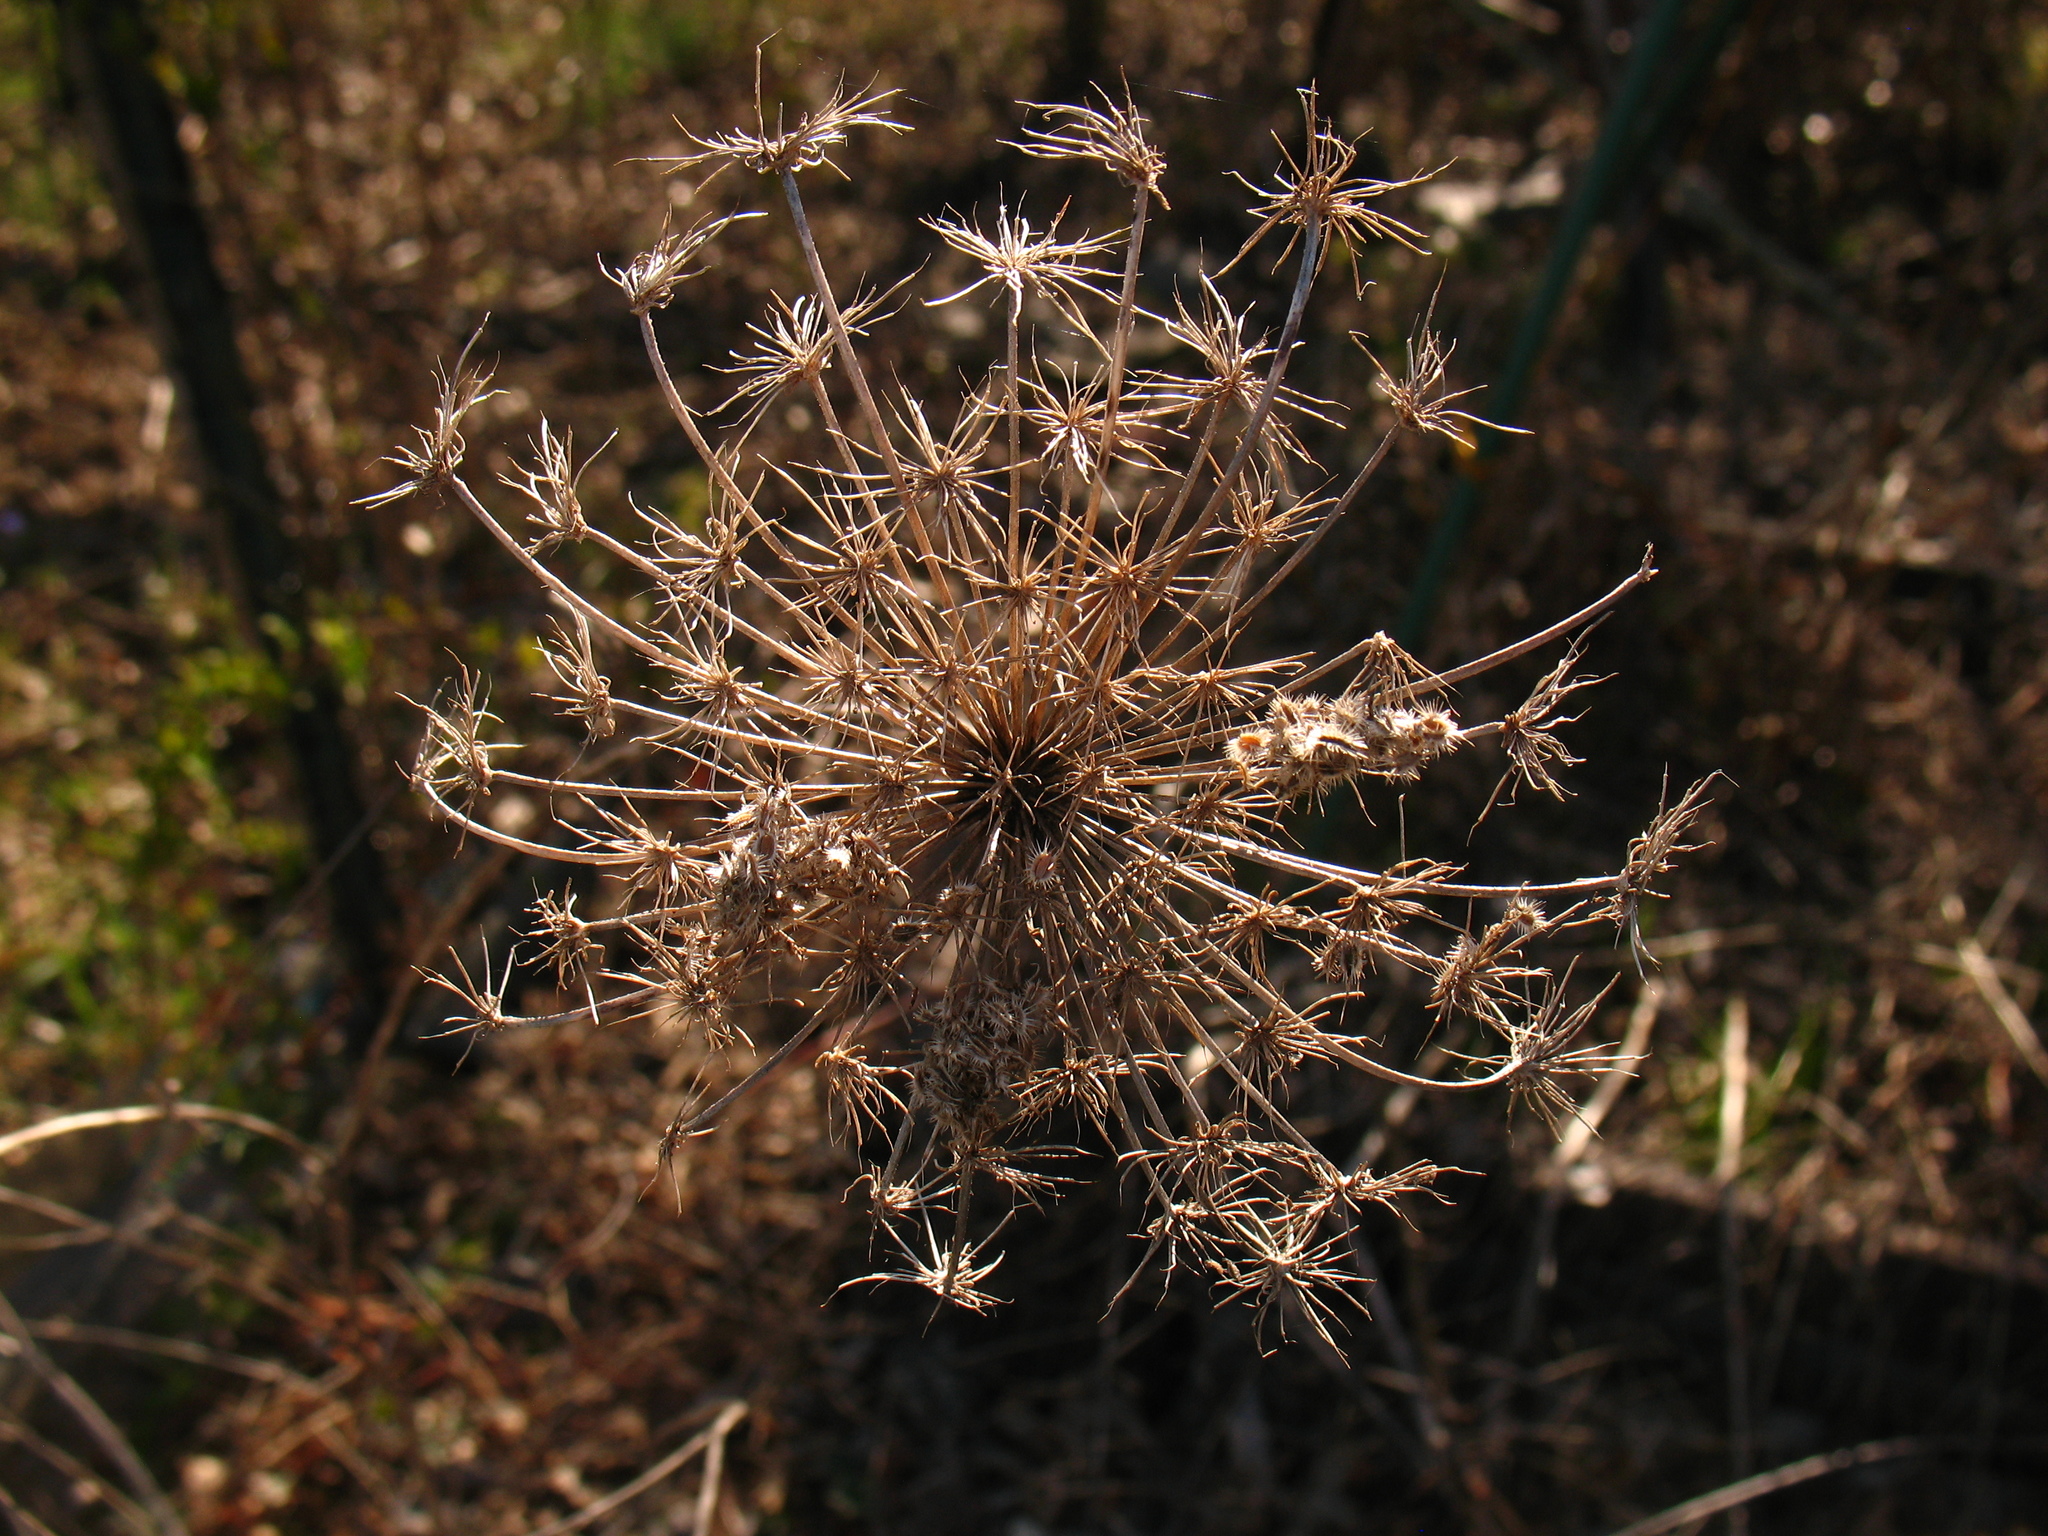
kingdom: Plantae
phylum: Tracheophyta
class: Magnoliopsida
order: Apiales
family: Apiaceae
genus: Daucus
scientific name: Daucus carota
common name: Wild carrot
